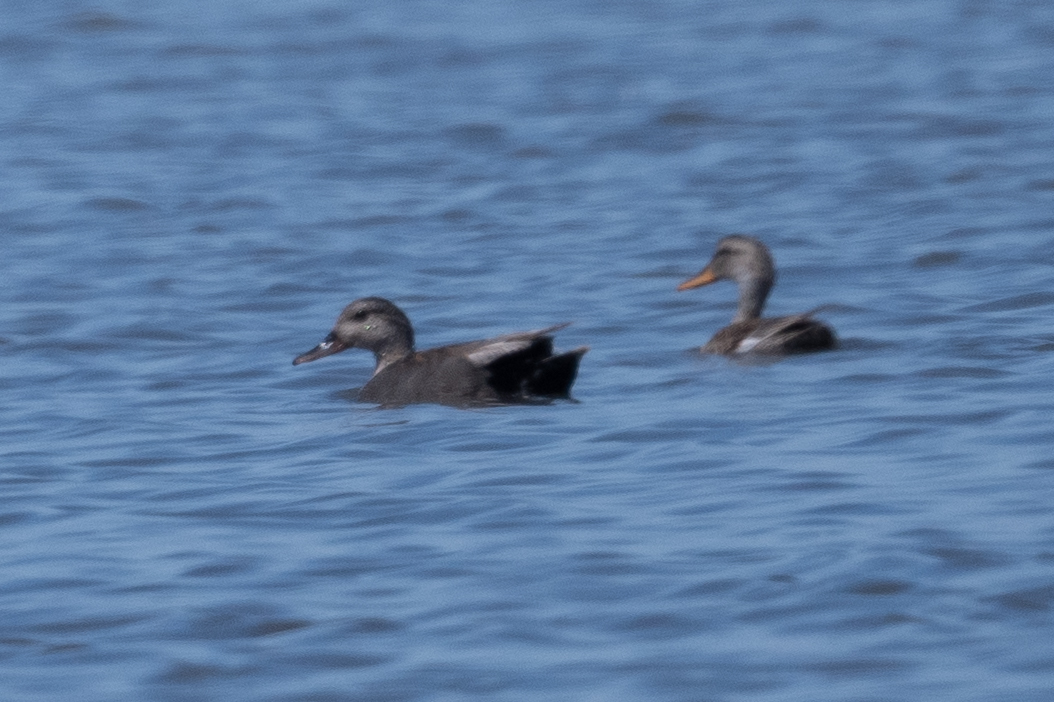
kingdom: Animalia
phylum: Chordata
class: Aves
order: Anseriformes
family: Anatidae
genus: Mareca
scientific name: Mareca strepera
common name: Gadwall
